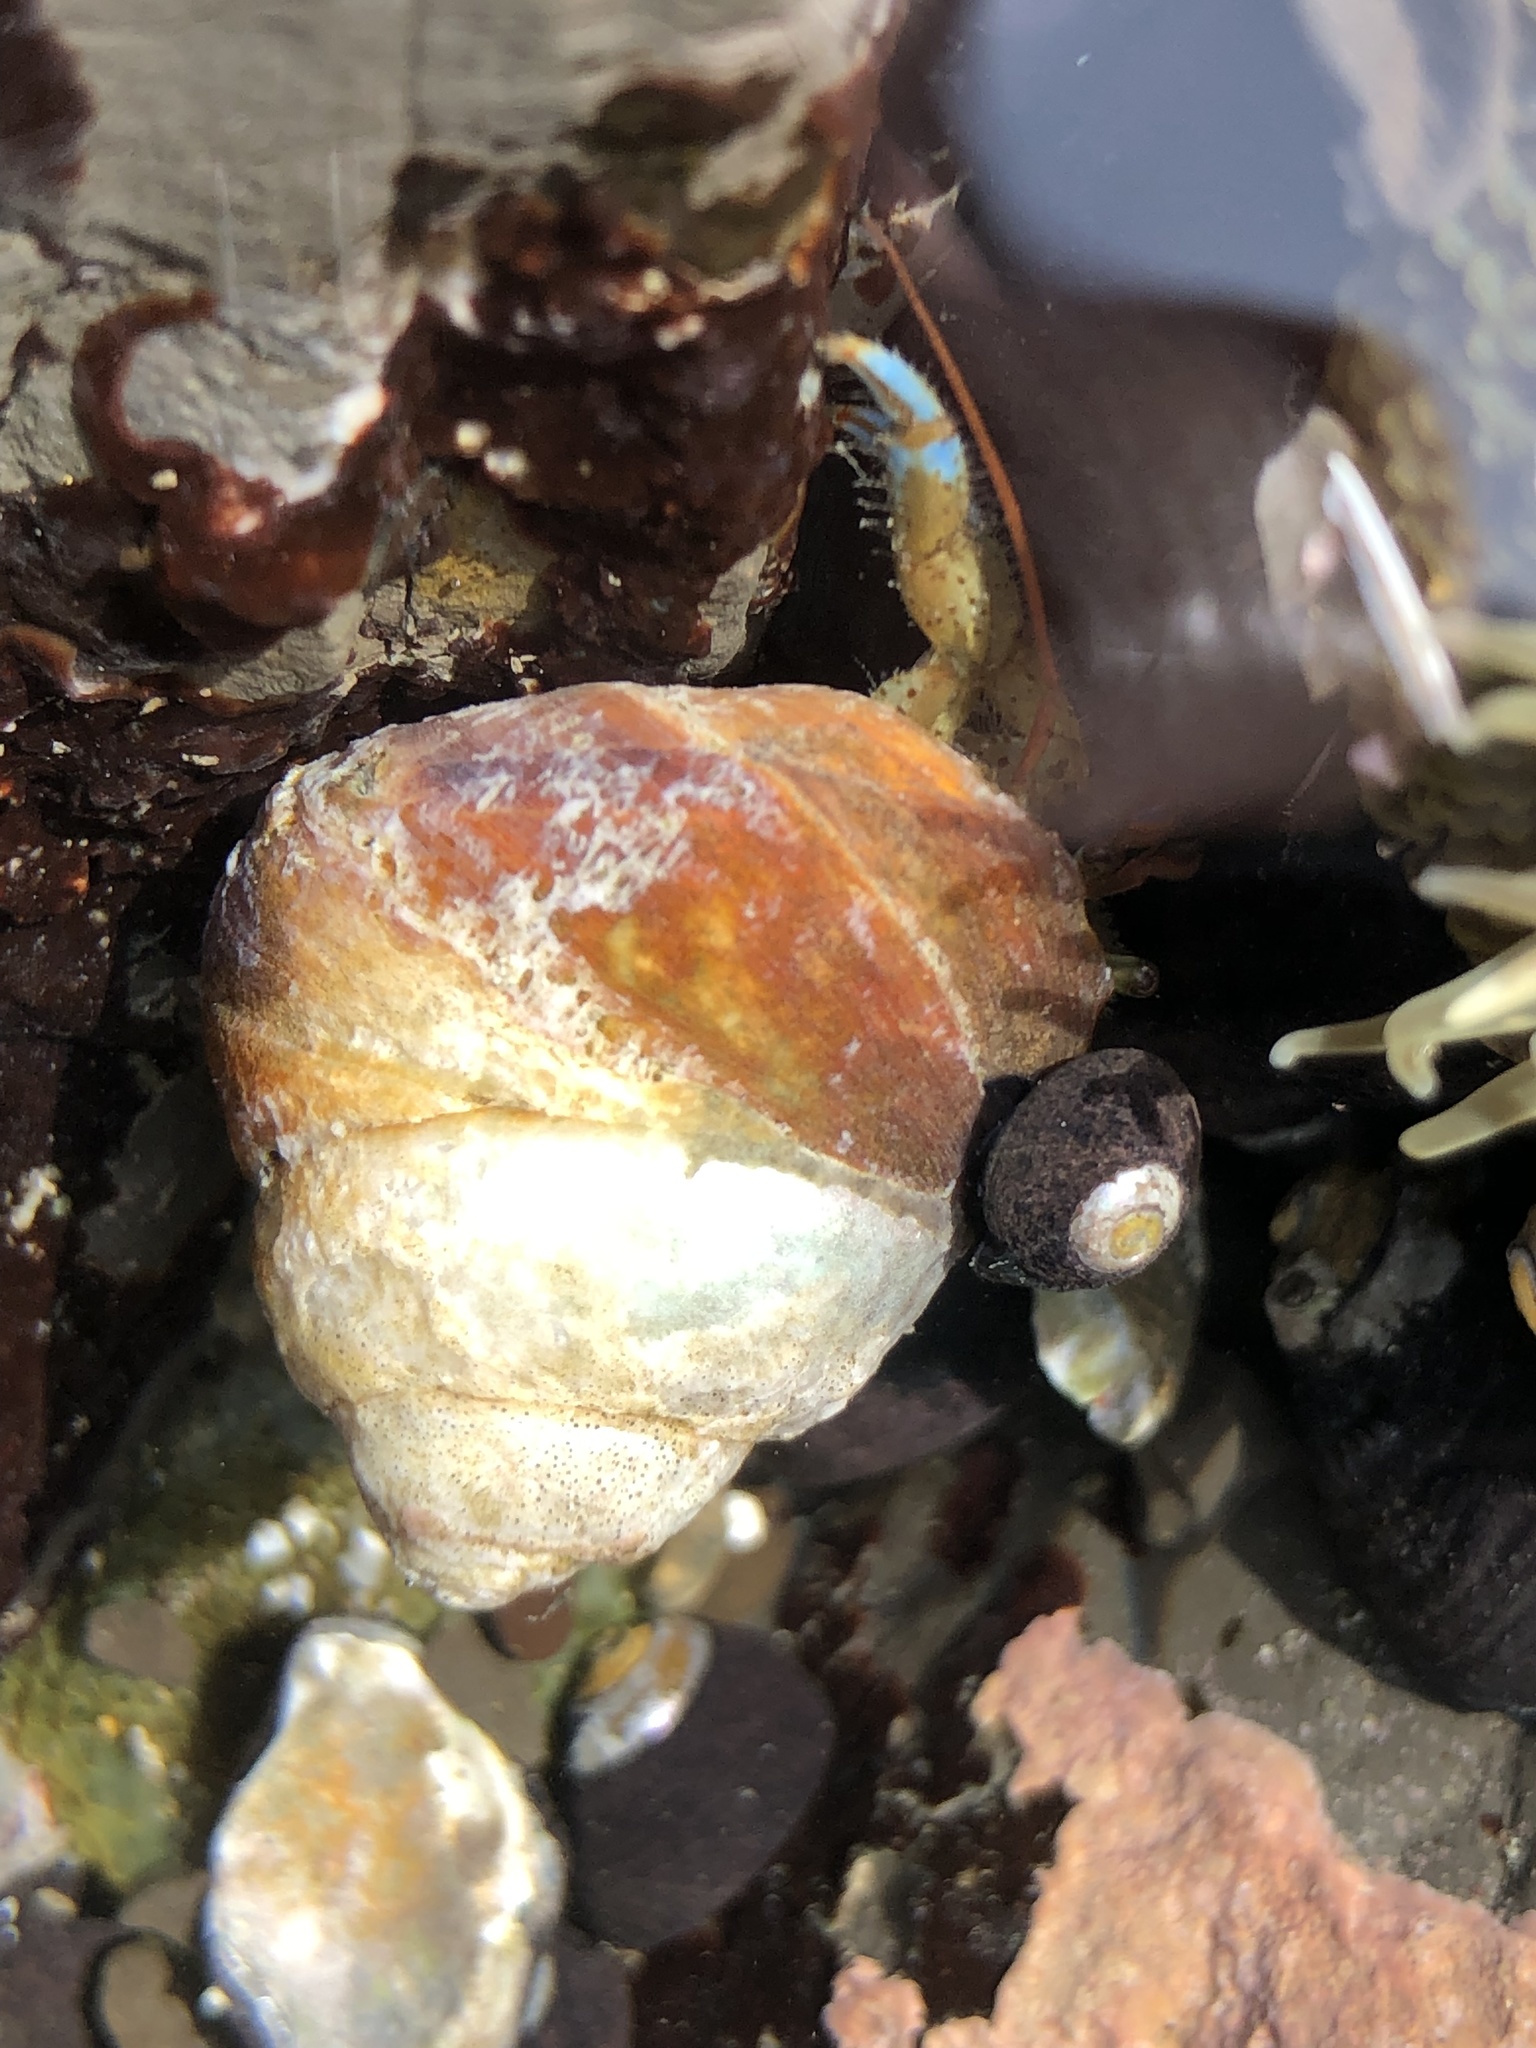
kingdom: Animalia
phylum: Arthropoda
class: Malacostraca
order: Decapoda
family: Paguridae
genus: Pagurus
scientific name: Pagurus samuelis
